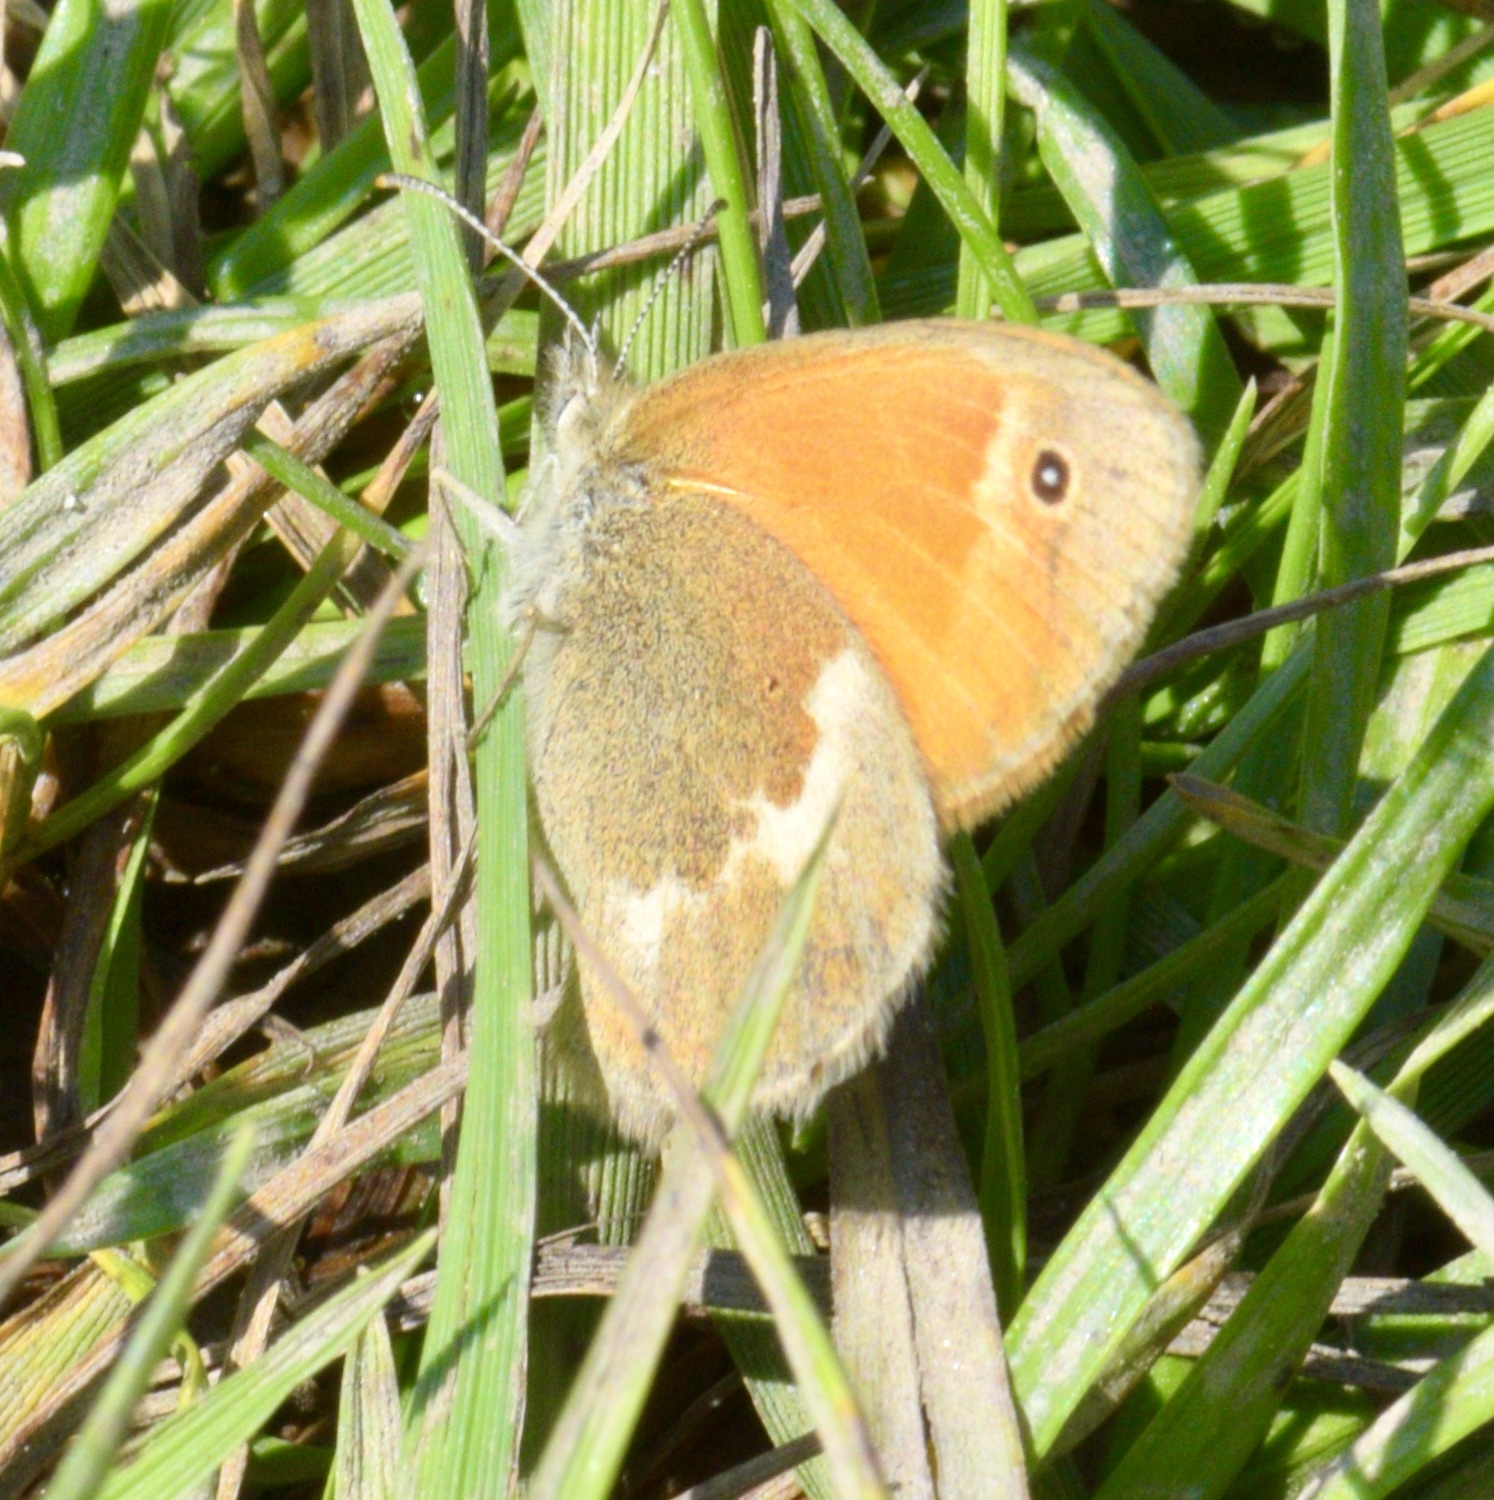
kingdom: Animalia
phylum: Arthropoda
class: Insecta
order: Lepidoptera
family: Nymphalidae
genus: Coenonympha
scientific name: Coenonympha california
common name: Common ringlet
